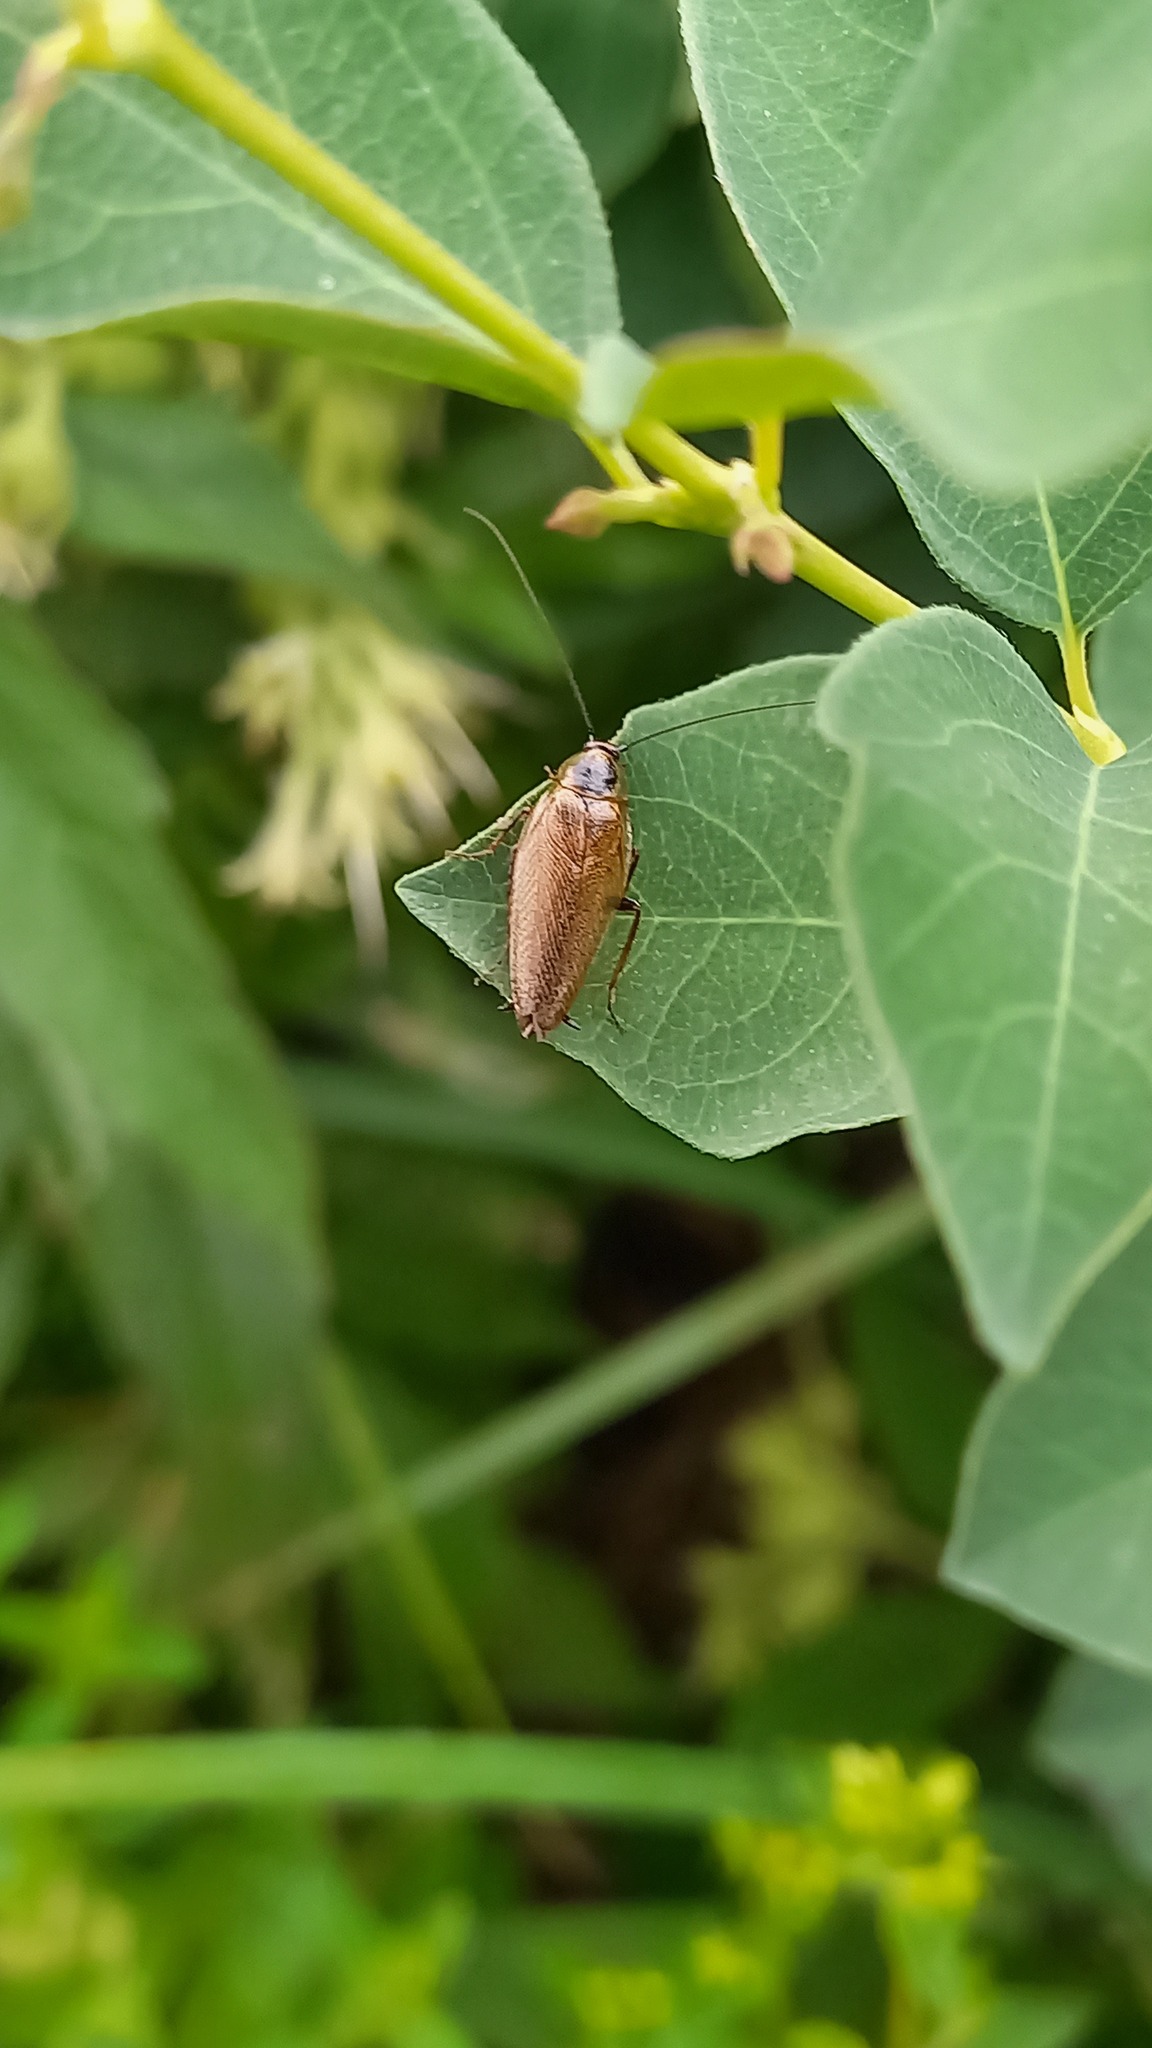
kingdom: Animalia
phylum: Arthropoda
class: Insecta
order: Blattodea
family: Ectobiidae
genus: Ectobius
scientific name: Ectobius lapponicus
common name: Dusky cockroach
